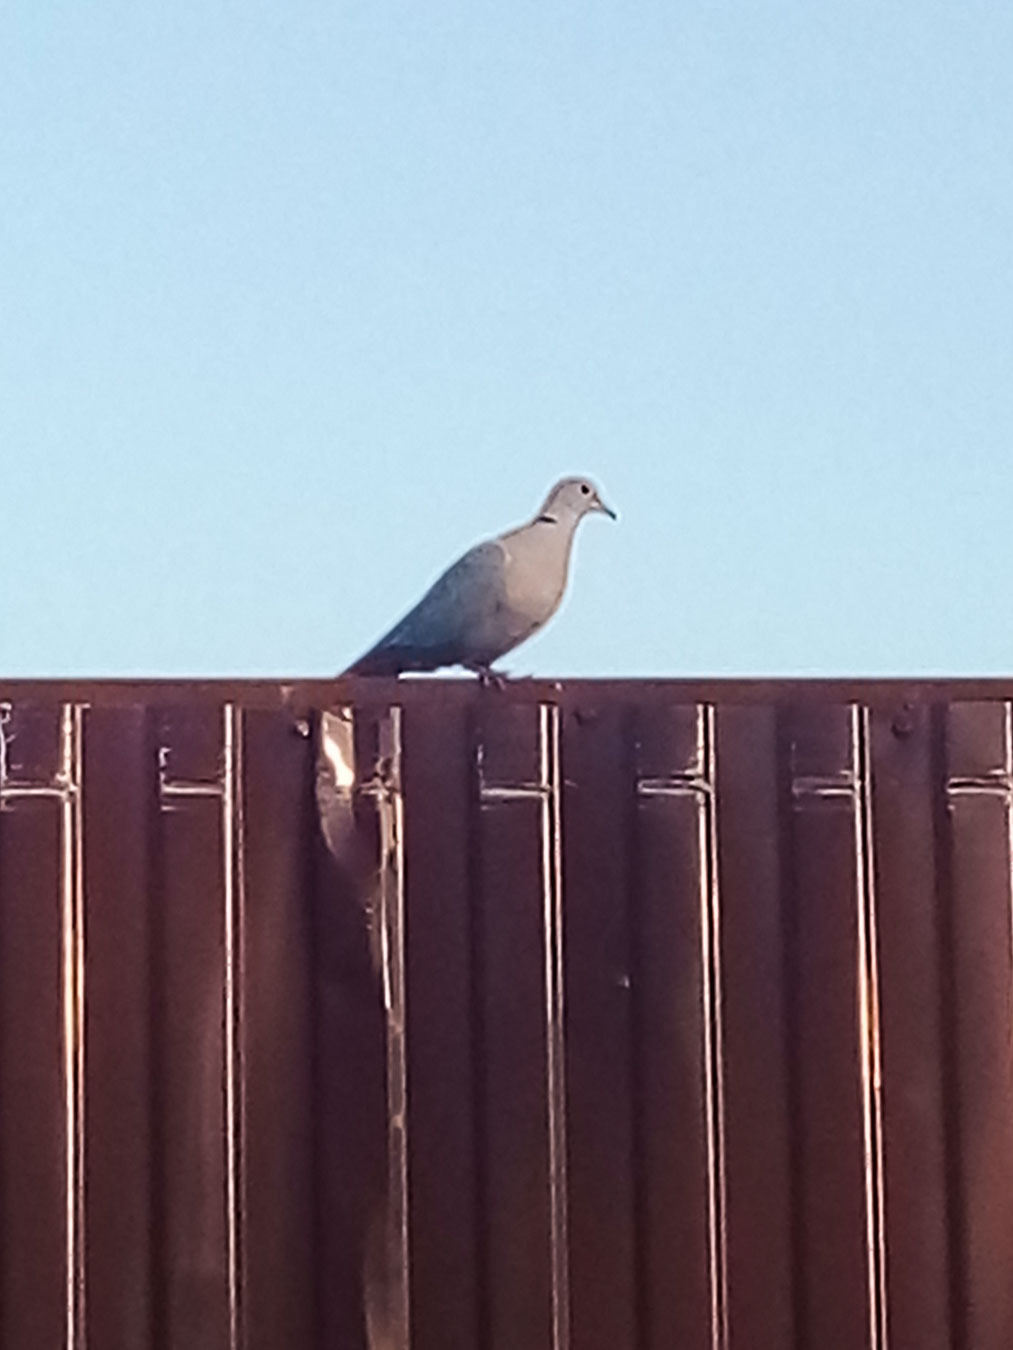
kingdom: Animalia
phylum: Chordata
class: Aves
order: Columbiformes
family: Columbidae
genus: Streptopelia
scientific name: Streptopelia decaocto
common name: Eurasian collared dove
